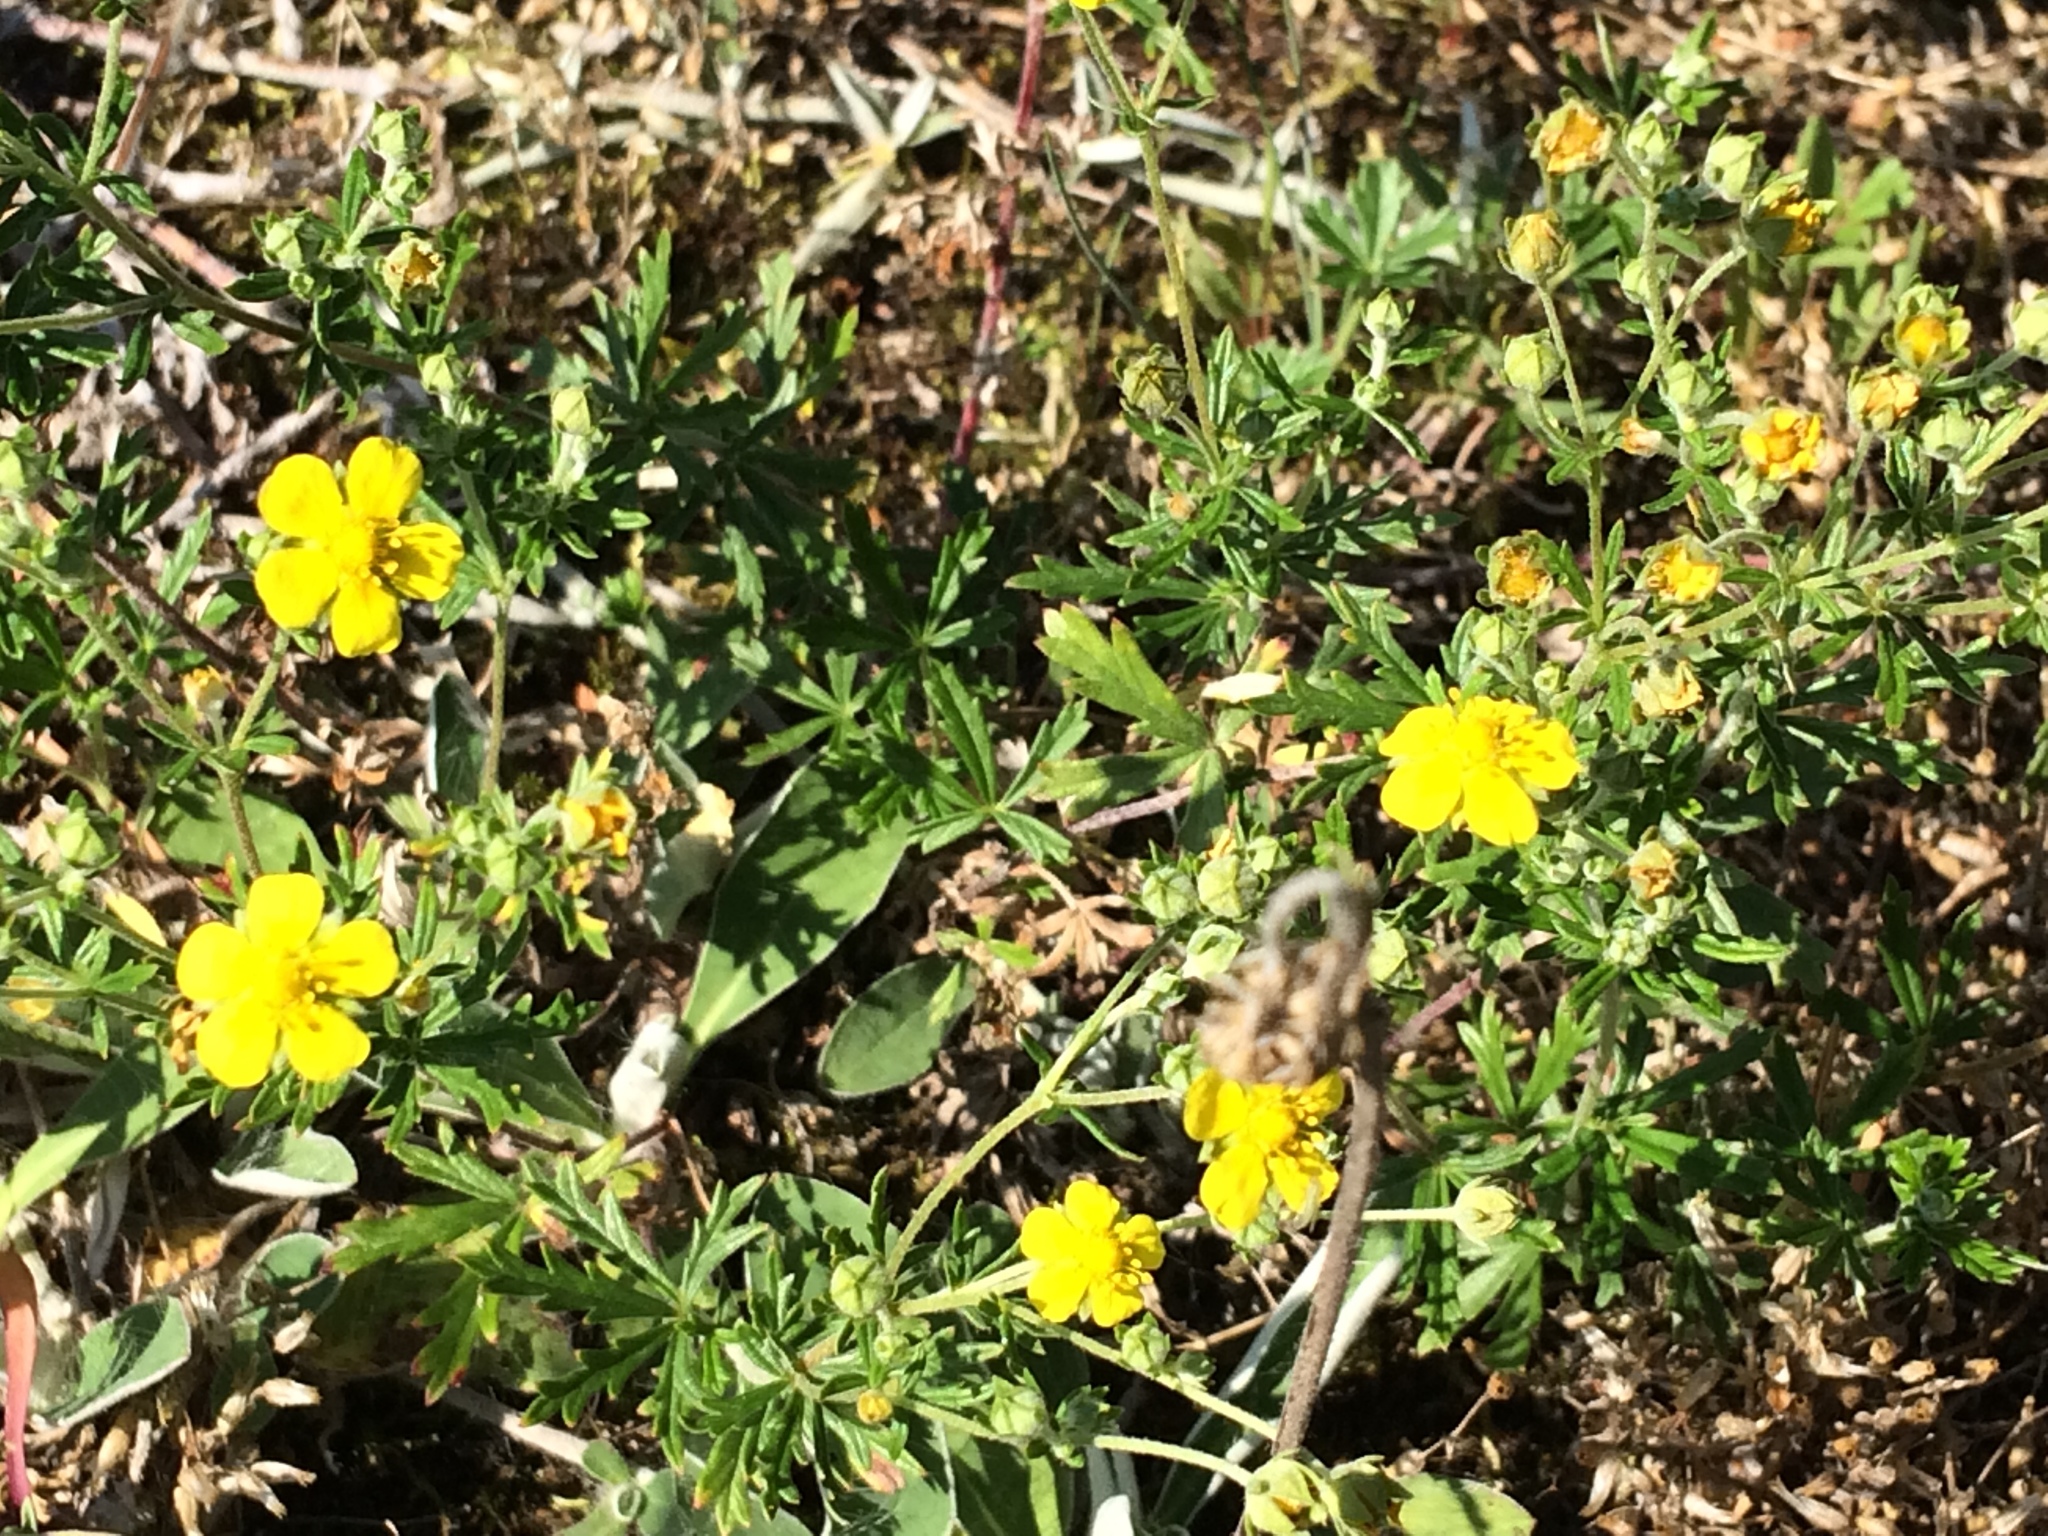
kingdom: Plantae
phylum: Tracheophyta
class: Magnoliopsida
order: Rosales
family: Rosaceae
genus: Potentilla
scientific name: Potentilla argentea
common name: Hoary cinquefoil
